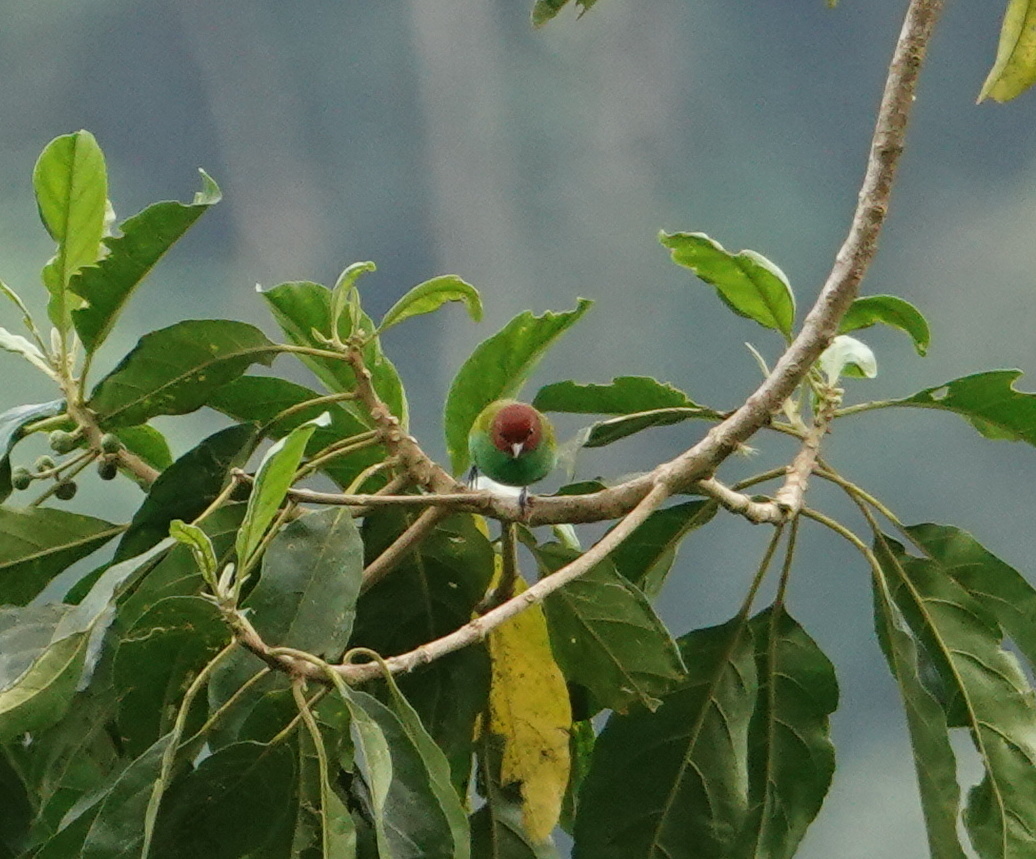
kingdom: Animalia
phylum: Chordata
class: Aves
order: Passeriformes
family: Thraupidae
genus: Tangara
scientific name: Tangara gyrola
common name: Bay-headed tanager
